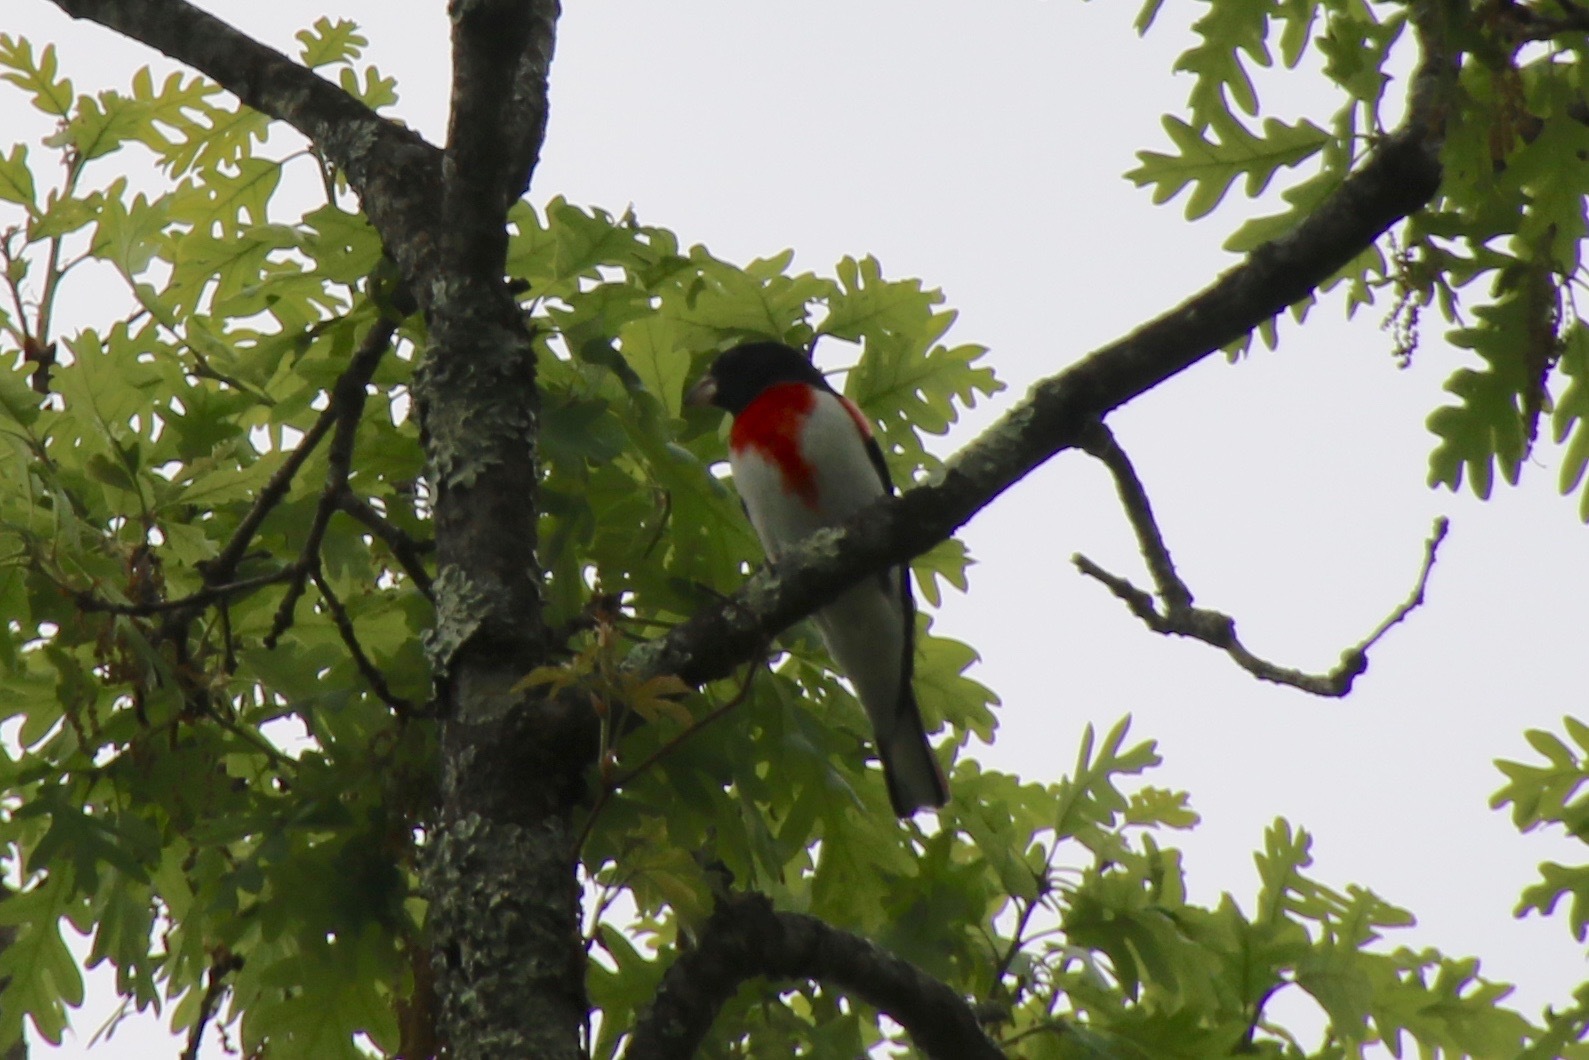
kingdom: Animalia
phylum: Chordata
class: Aves
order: Passeriformes
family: Cardinalidae
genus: Pheucticus
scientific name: Pheucticus ludovicianus
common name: Rose-breasted grosbeak
